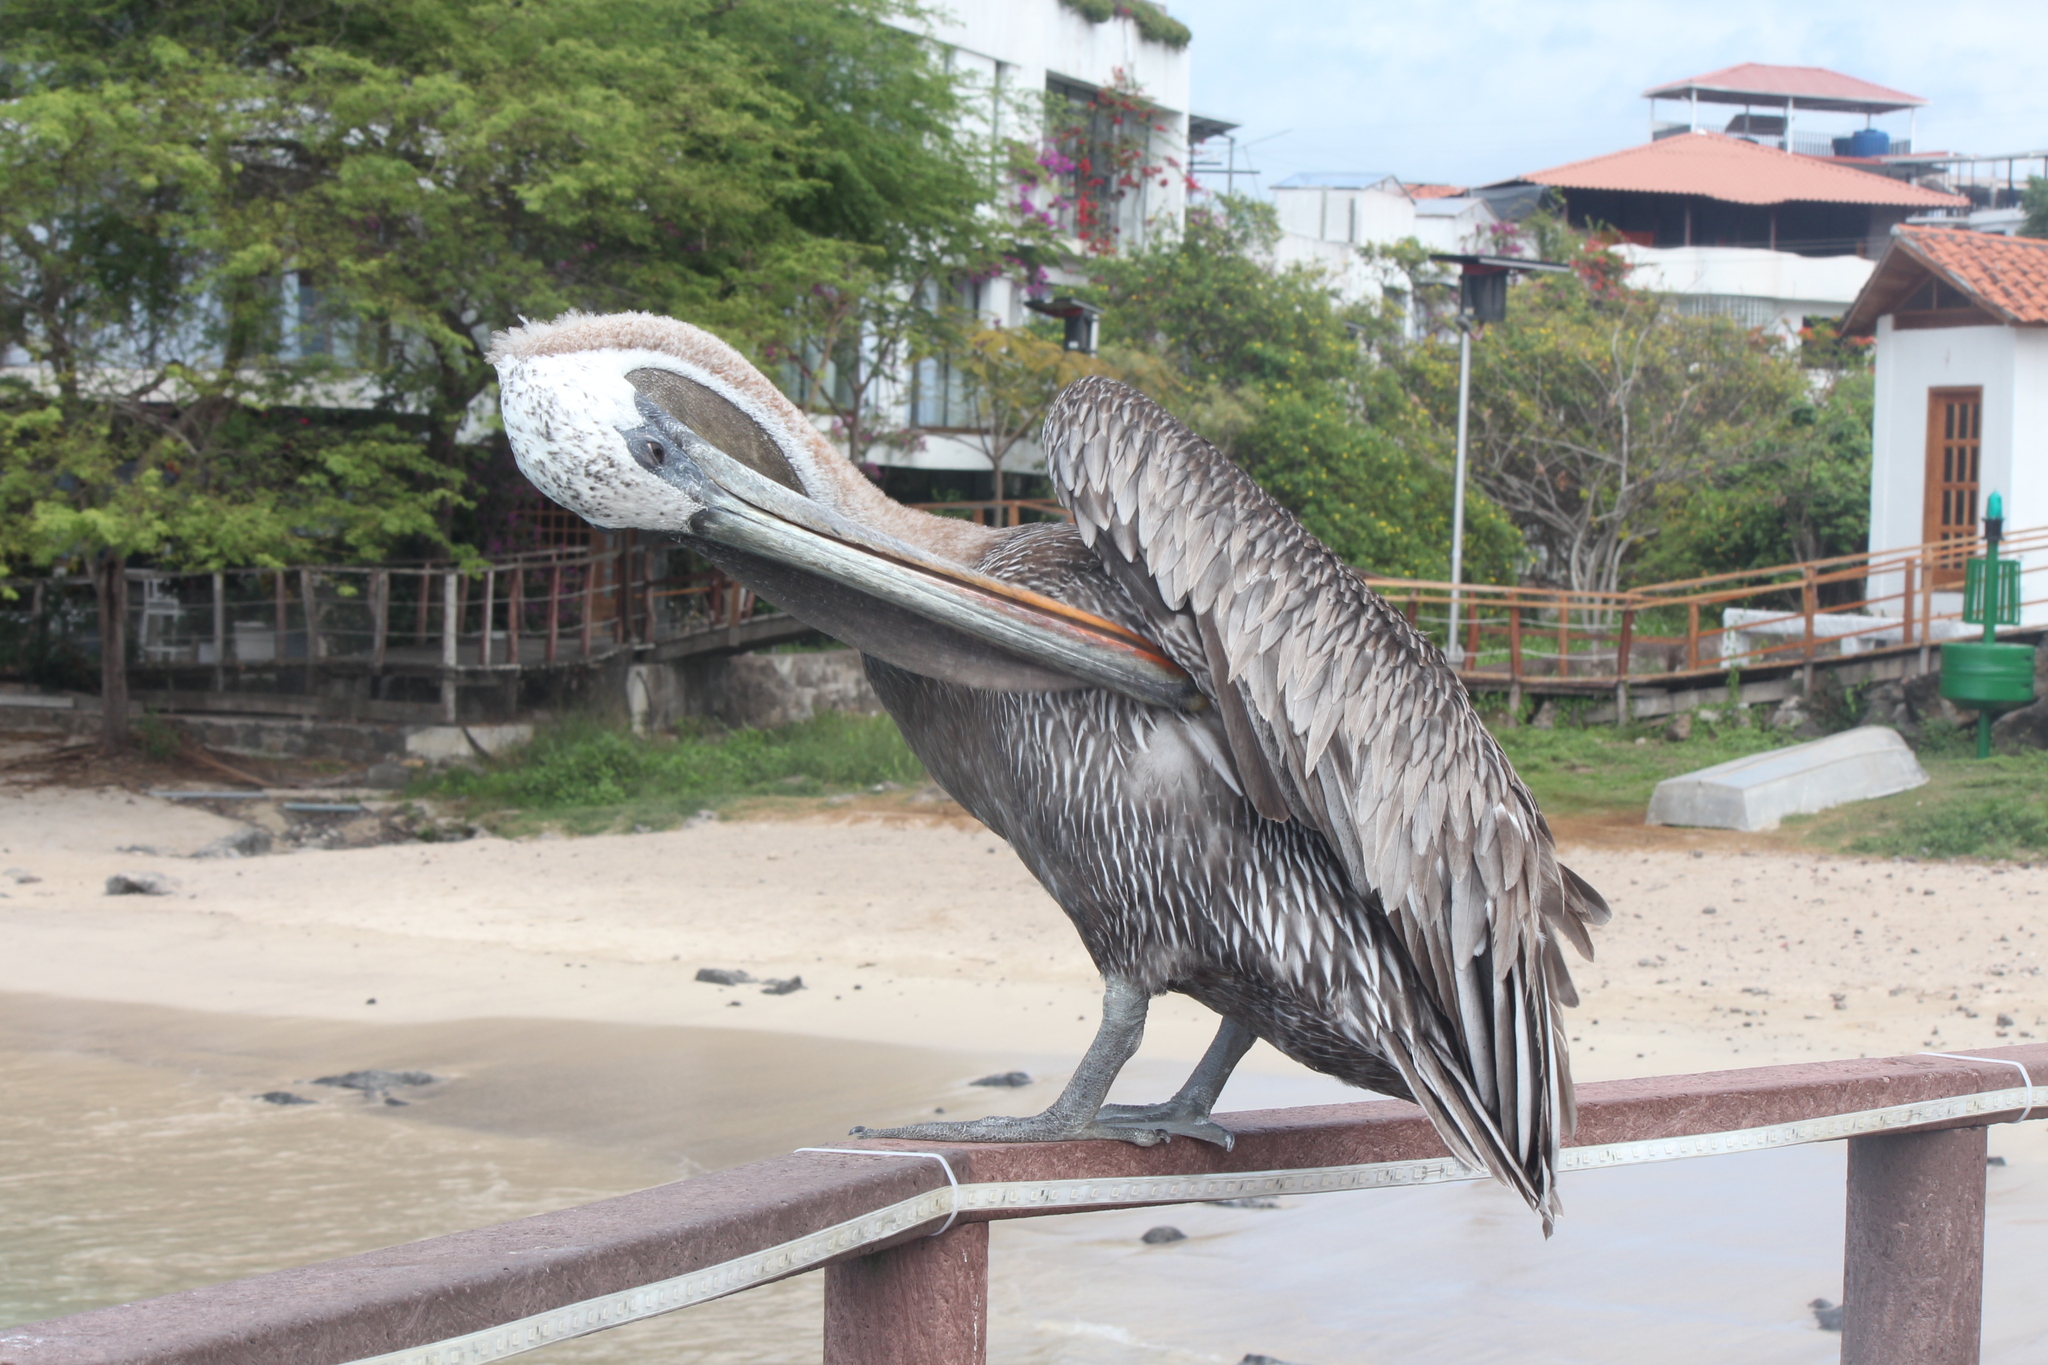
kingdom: Animalia
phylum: Chordata
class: Aves
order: Pelecaniformes
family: Pelecanidae
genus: Pelecanus
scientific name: Pelecanus occidentalis
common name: Brown pelican
